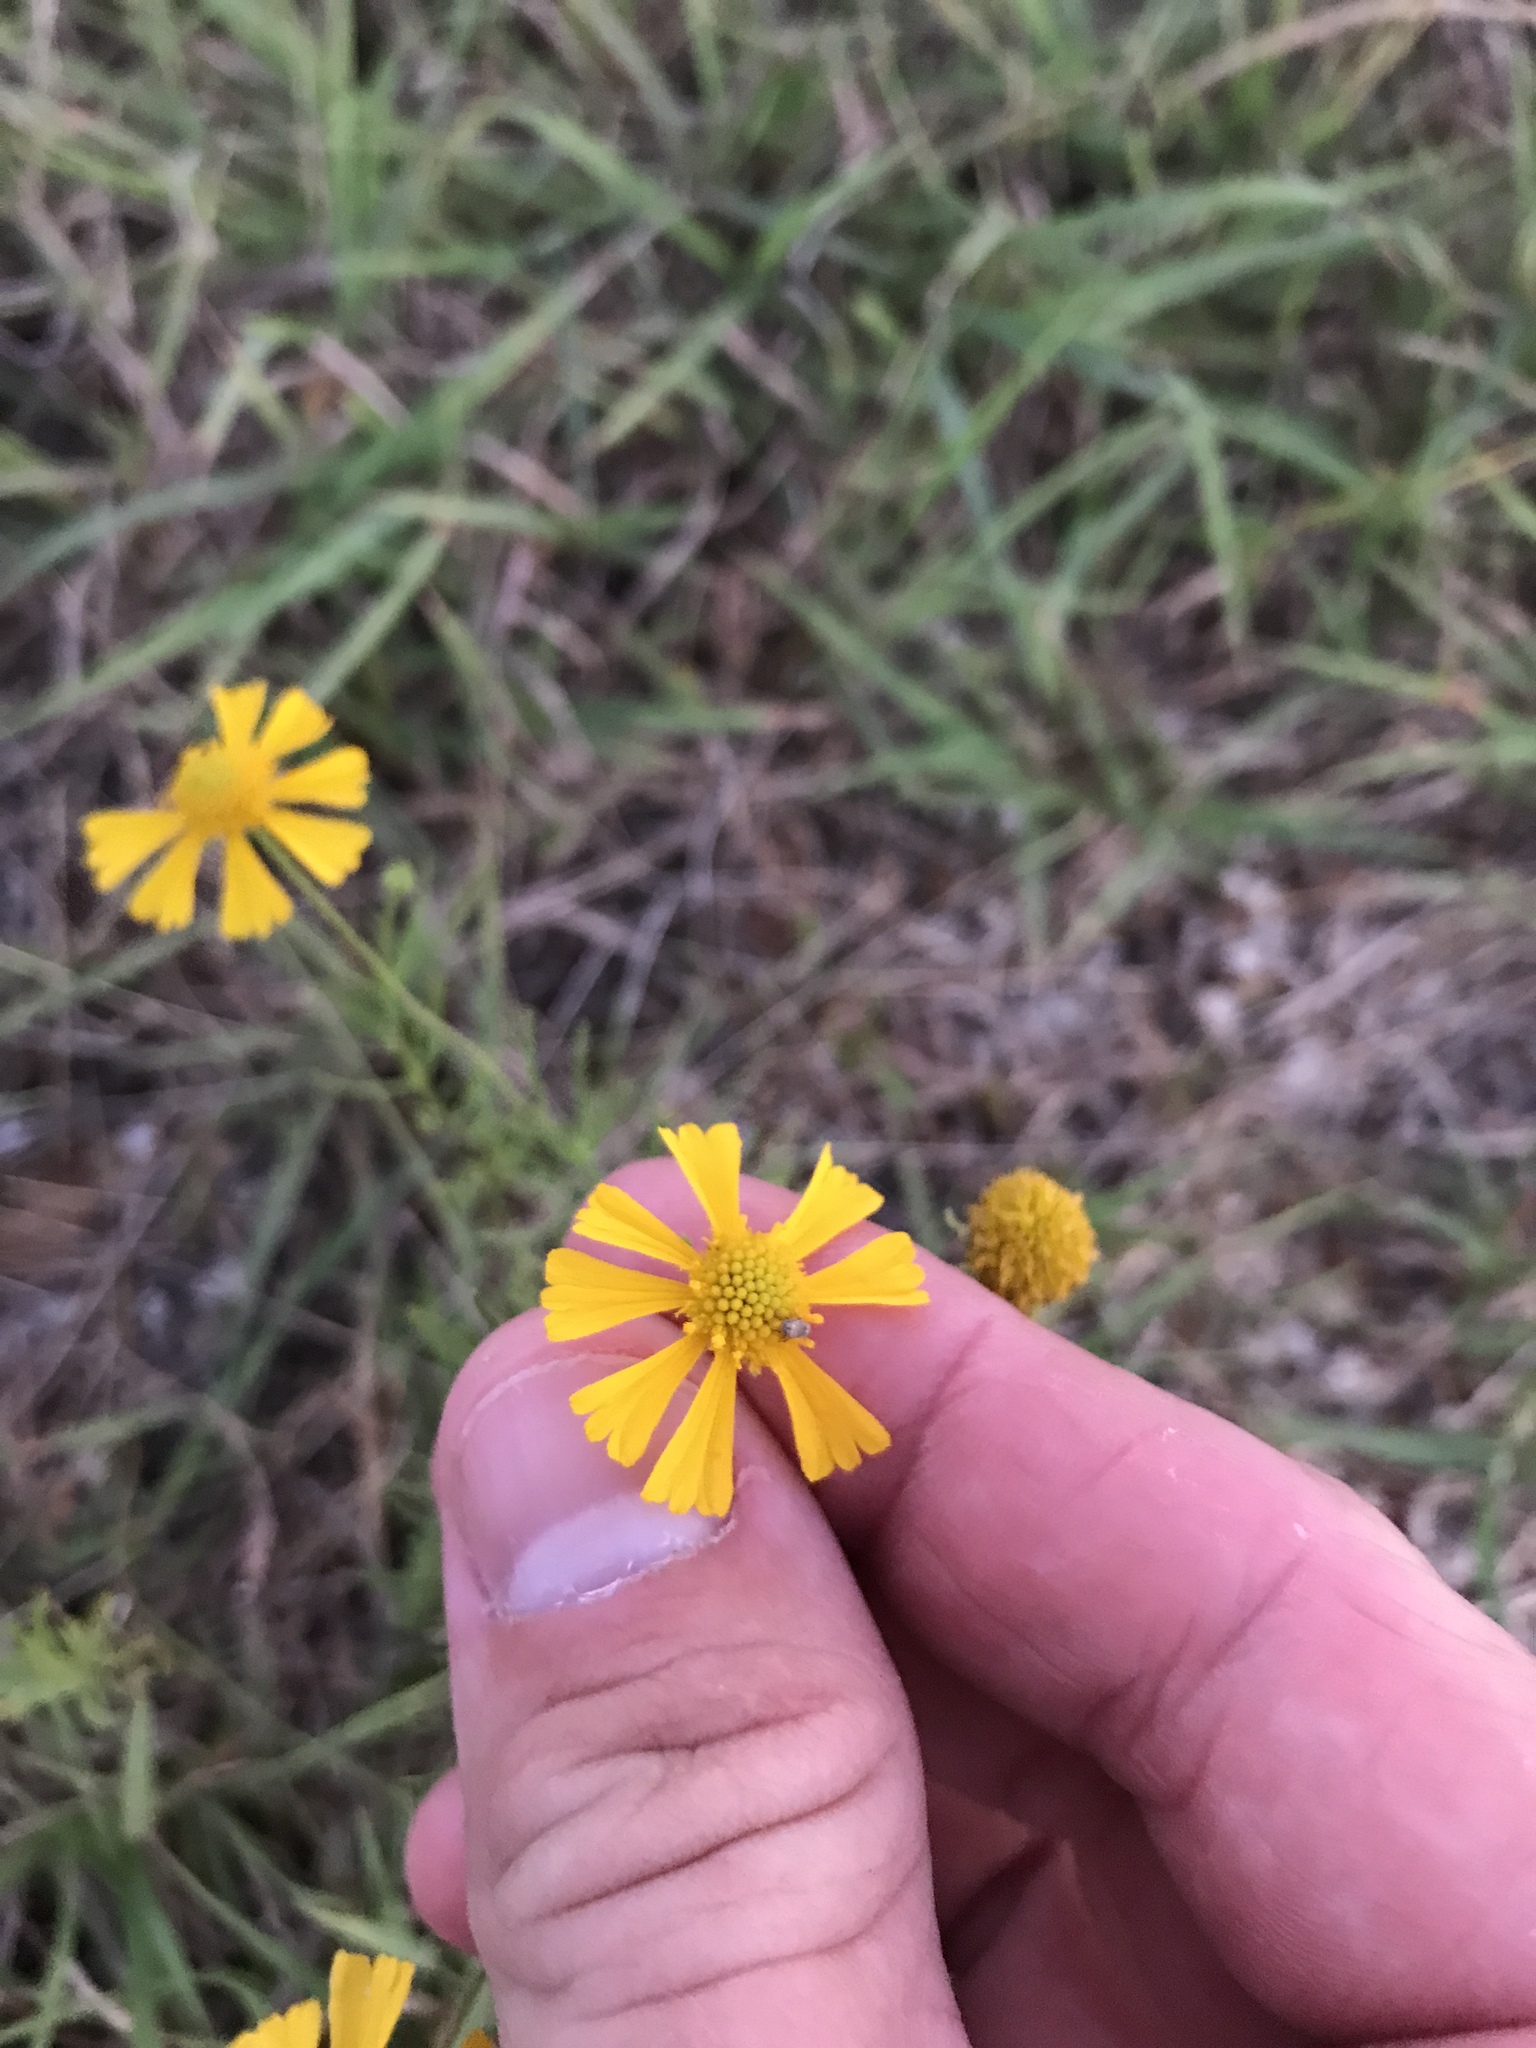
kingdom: Plantae
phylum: Tracheophyta
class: Magnoliopsida
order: Asterales
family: Asteraceae
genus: Helenium
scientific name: Helenium amarum
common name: Bitter sneezeweed
